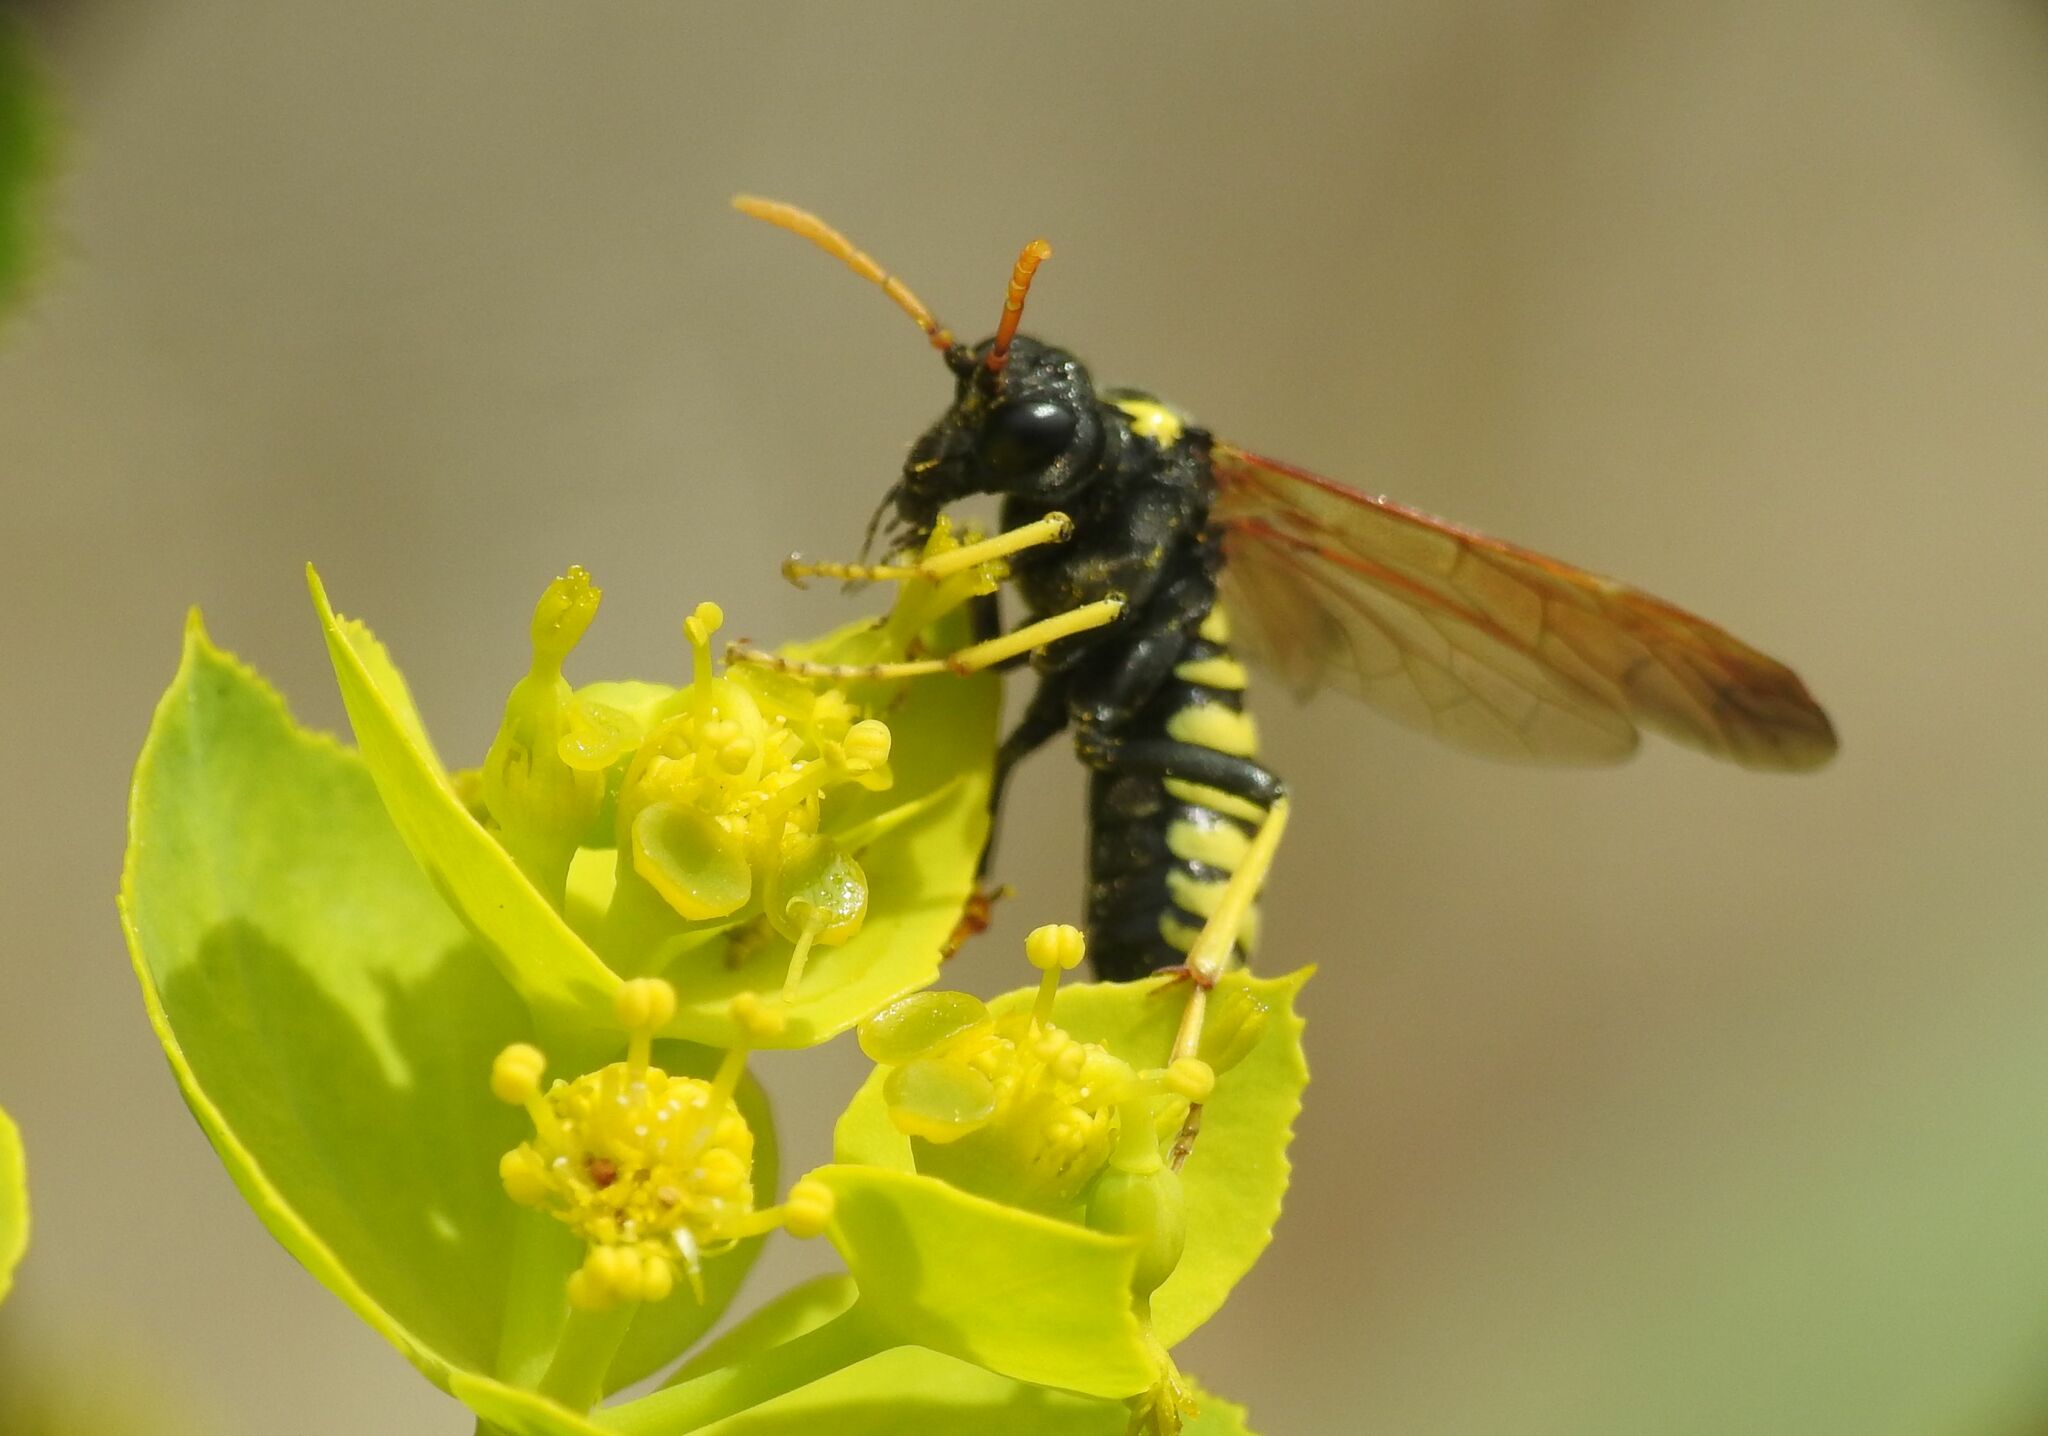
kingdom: Animalia
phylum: Arthropoda
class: Insecta
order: Hymenoptera
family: Tenthredinidae
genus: Tenthredo
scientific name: Tenthredo meridiana
